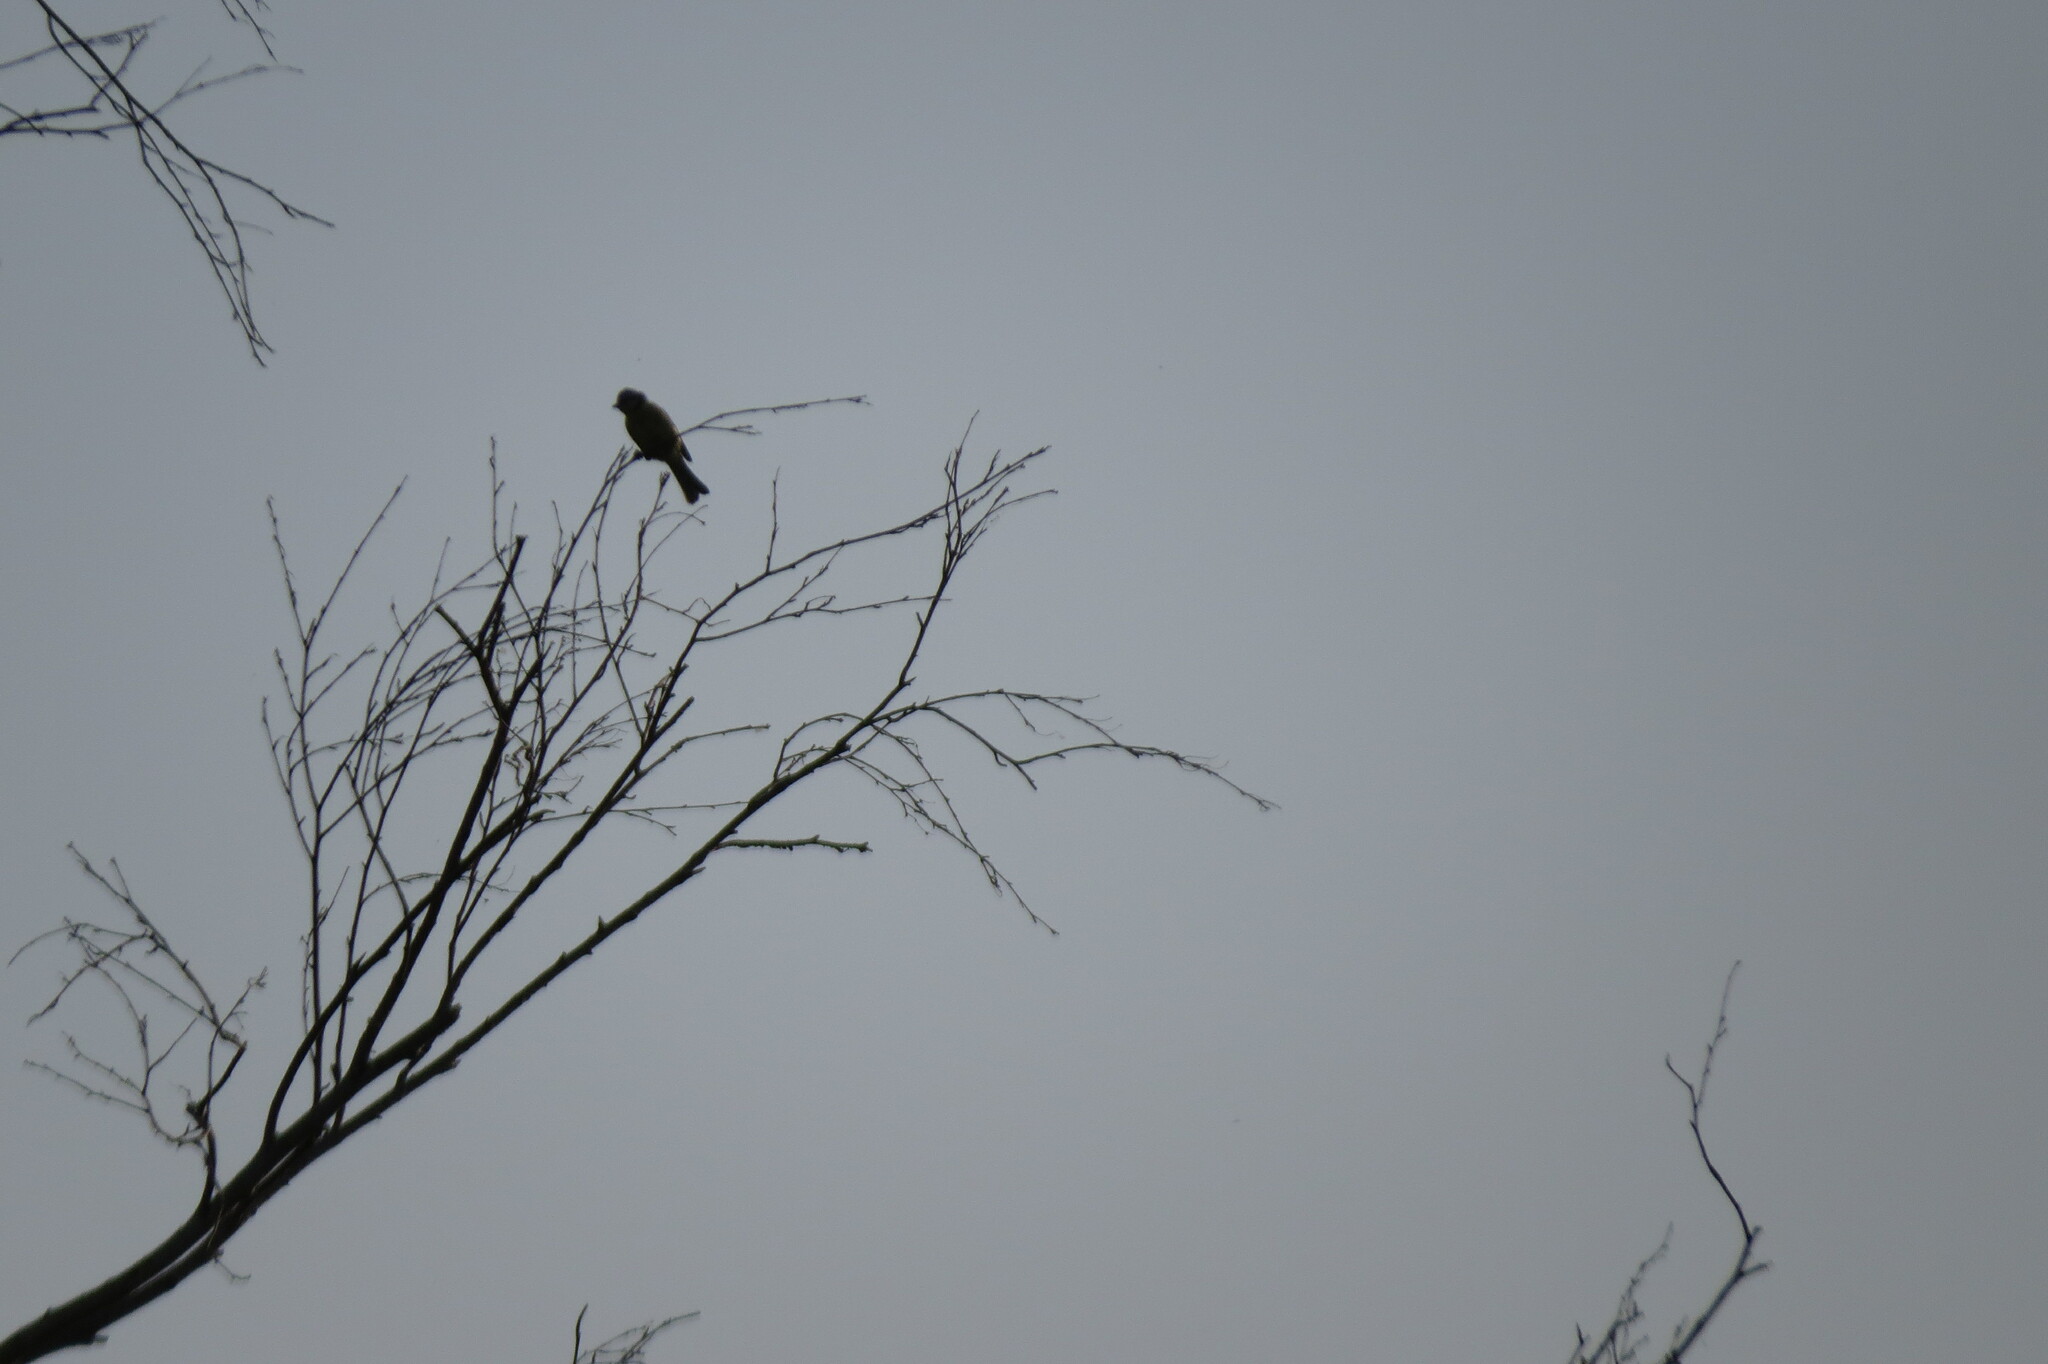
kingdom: Animalia
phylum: Chordata
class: Aves
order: Passeriformes
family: Paridae
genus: Cyanistes
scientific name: Cyanistes caeruleus
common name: Eurasian blue tit
